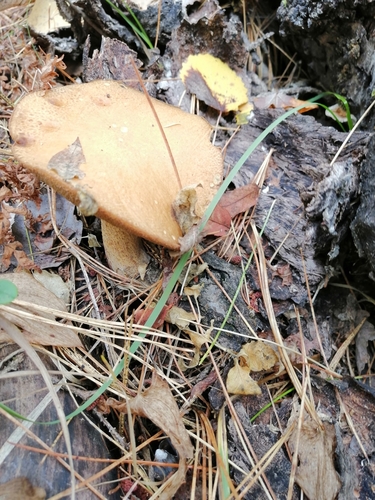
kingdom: Fungi
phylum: Basidiomycota
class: Agaricomycetes
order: Boletales
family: Suillaceae
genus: Suillus
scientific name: Suillus variegatus
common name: Velvet bolete
